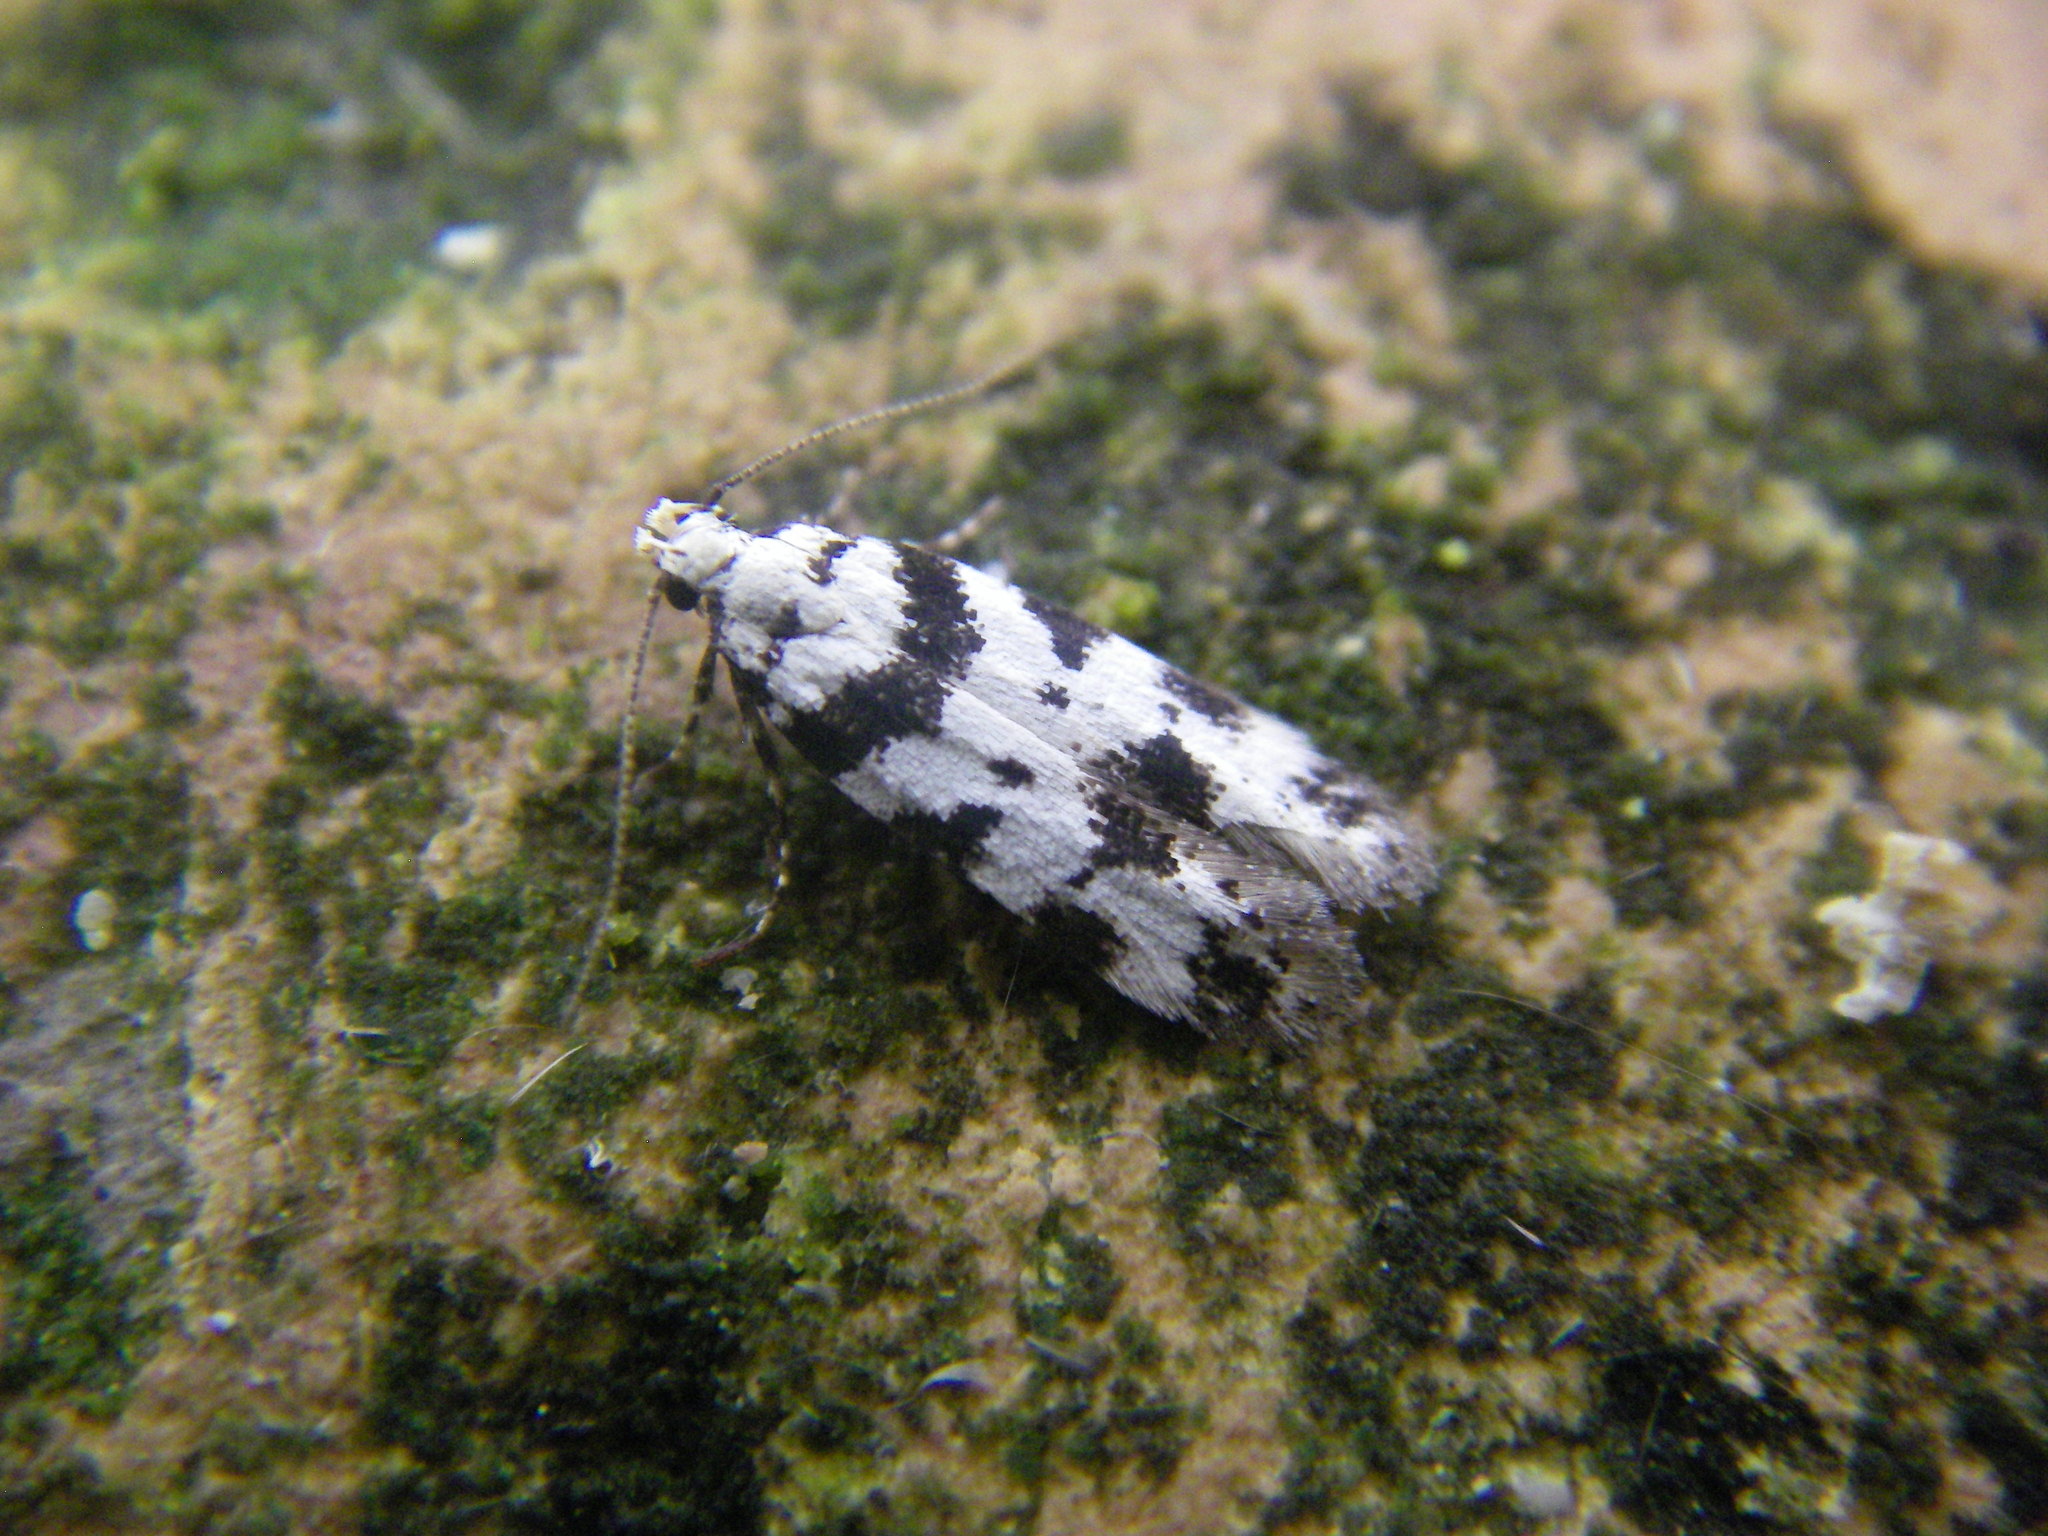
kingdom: Animalia
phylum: Arthropoda
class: Insecta
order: Lepidoptera
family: Gelechiidae
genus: Pseudotelphusa
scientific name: Pseudotelphusa scalella
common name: Black-spotted groundling
